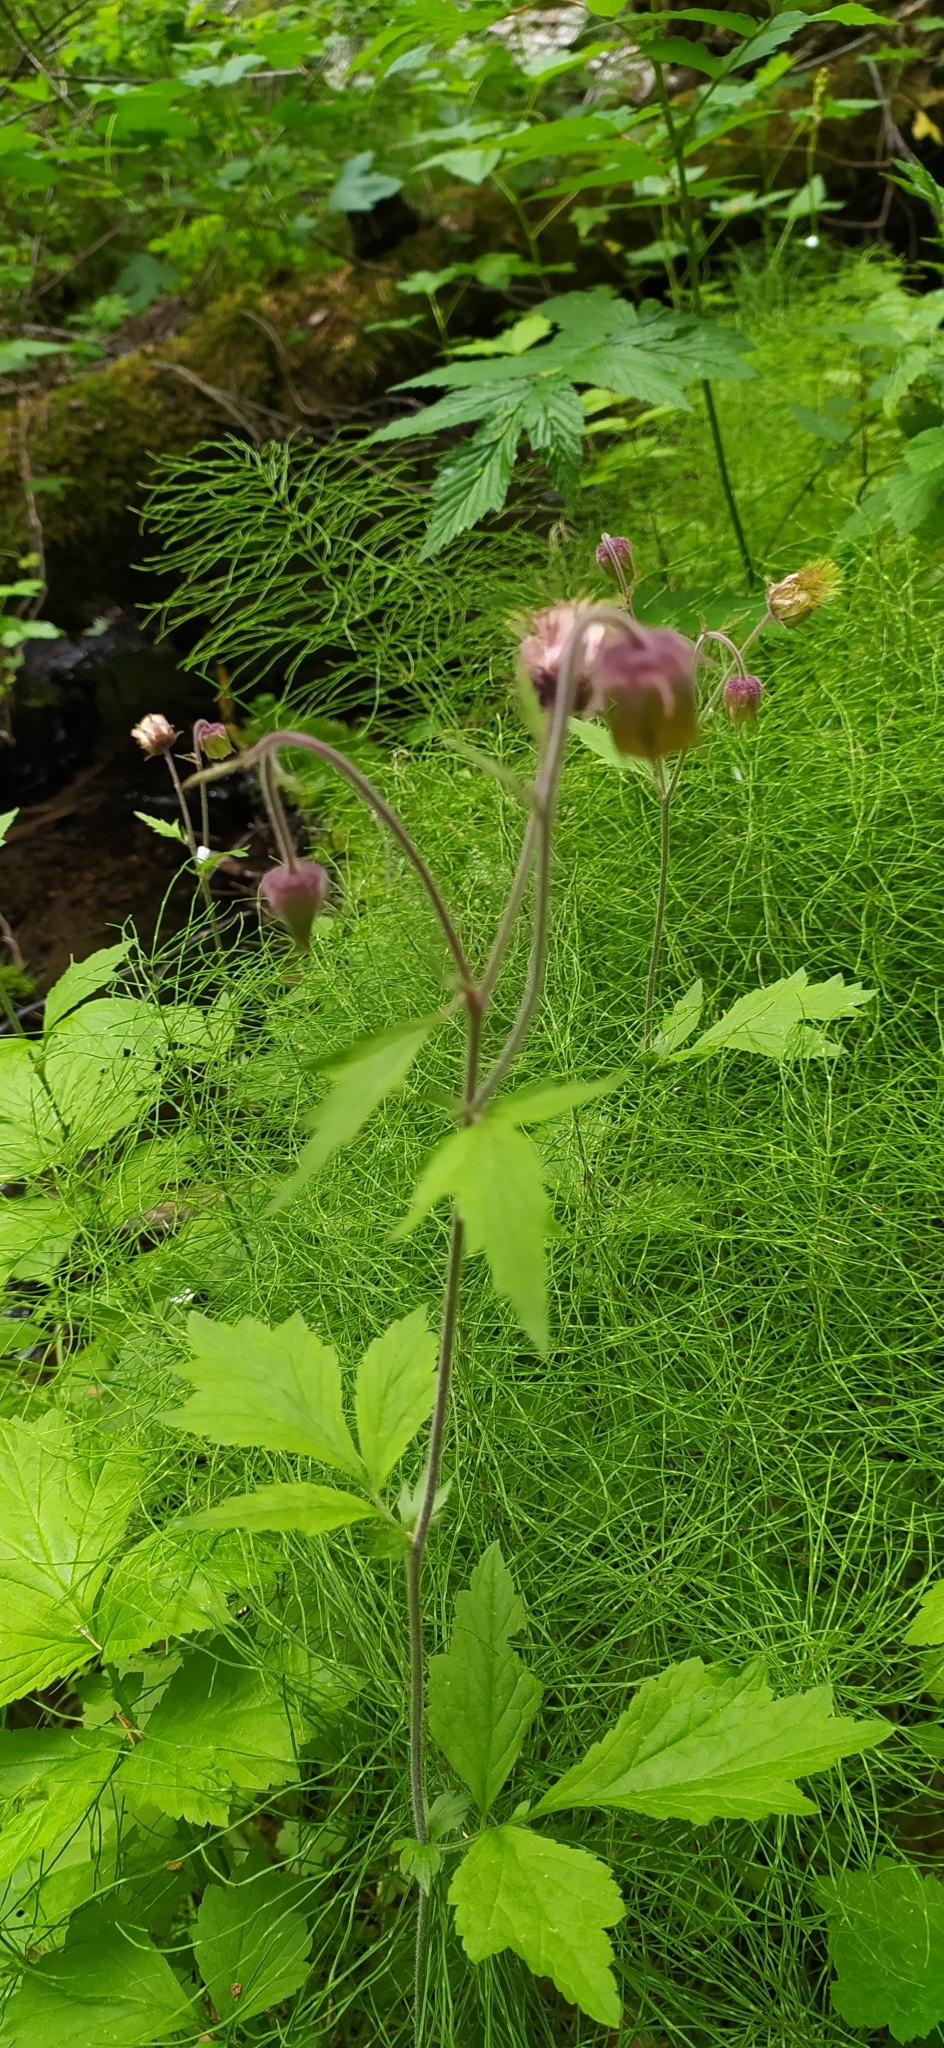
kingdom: Plantae
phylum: Tracheophyta
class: Magnoliopsida
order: Rosales
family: Rosaceae
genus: Geum
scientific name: Geum rivale
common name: Water avens
